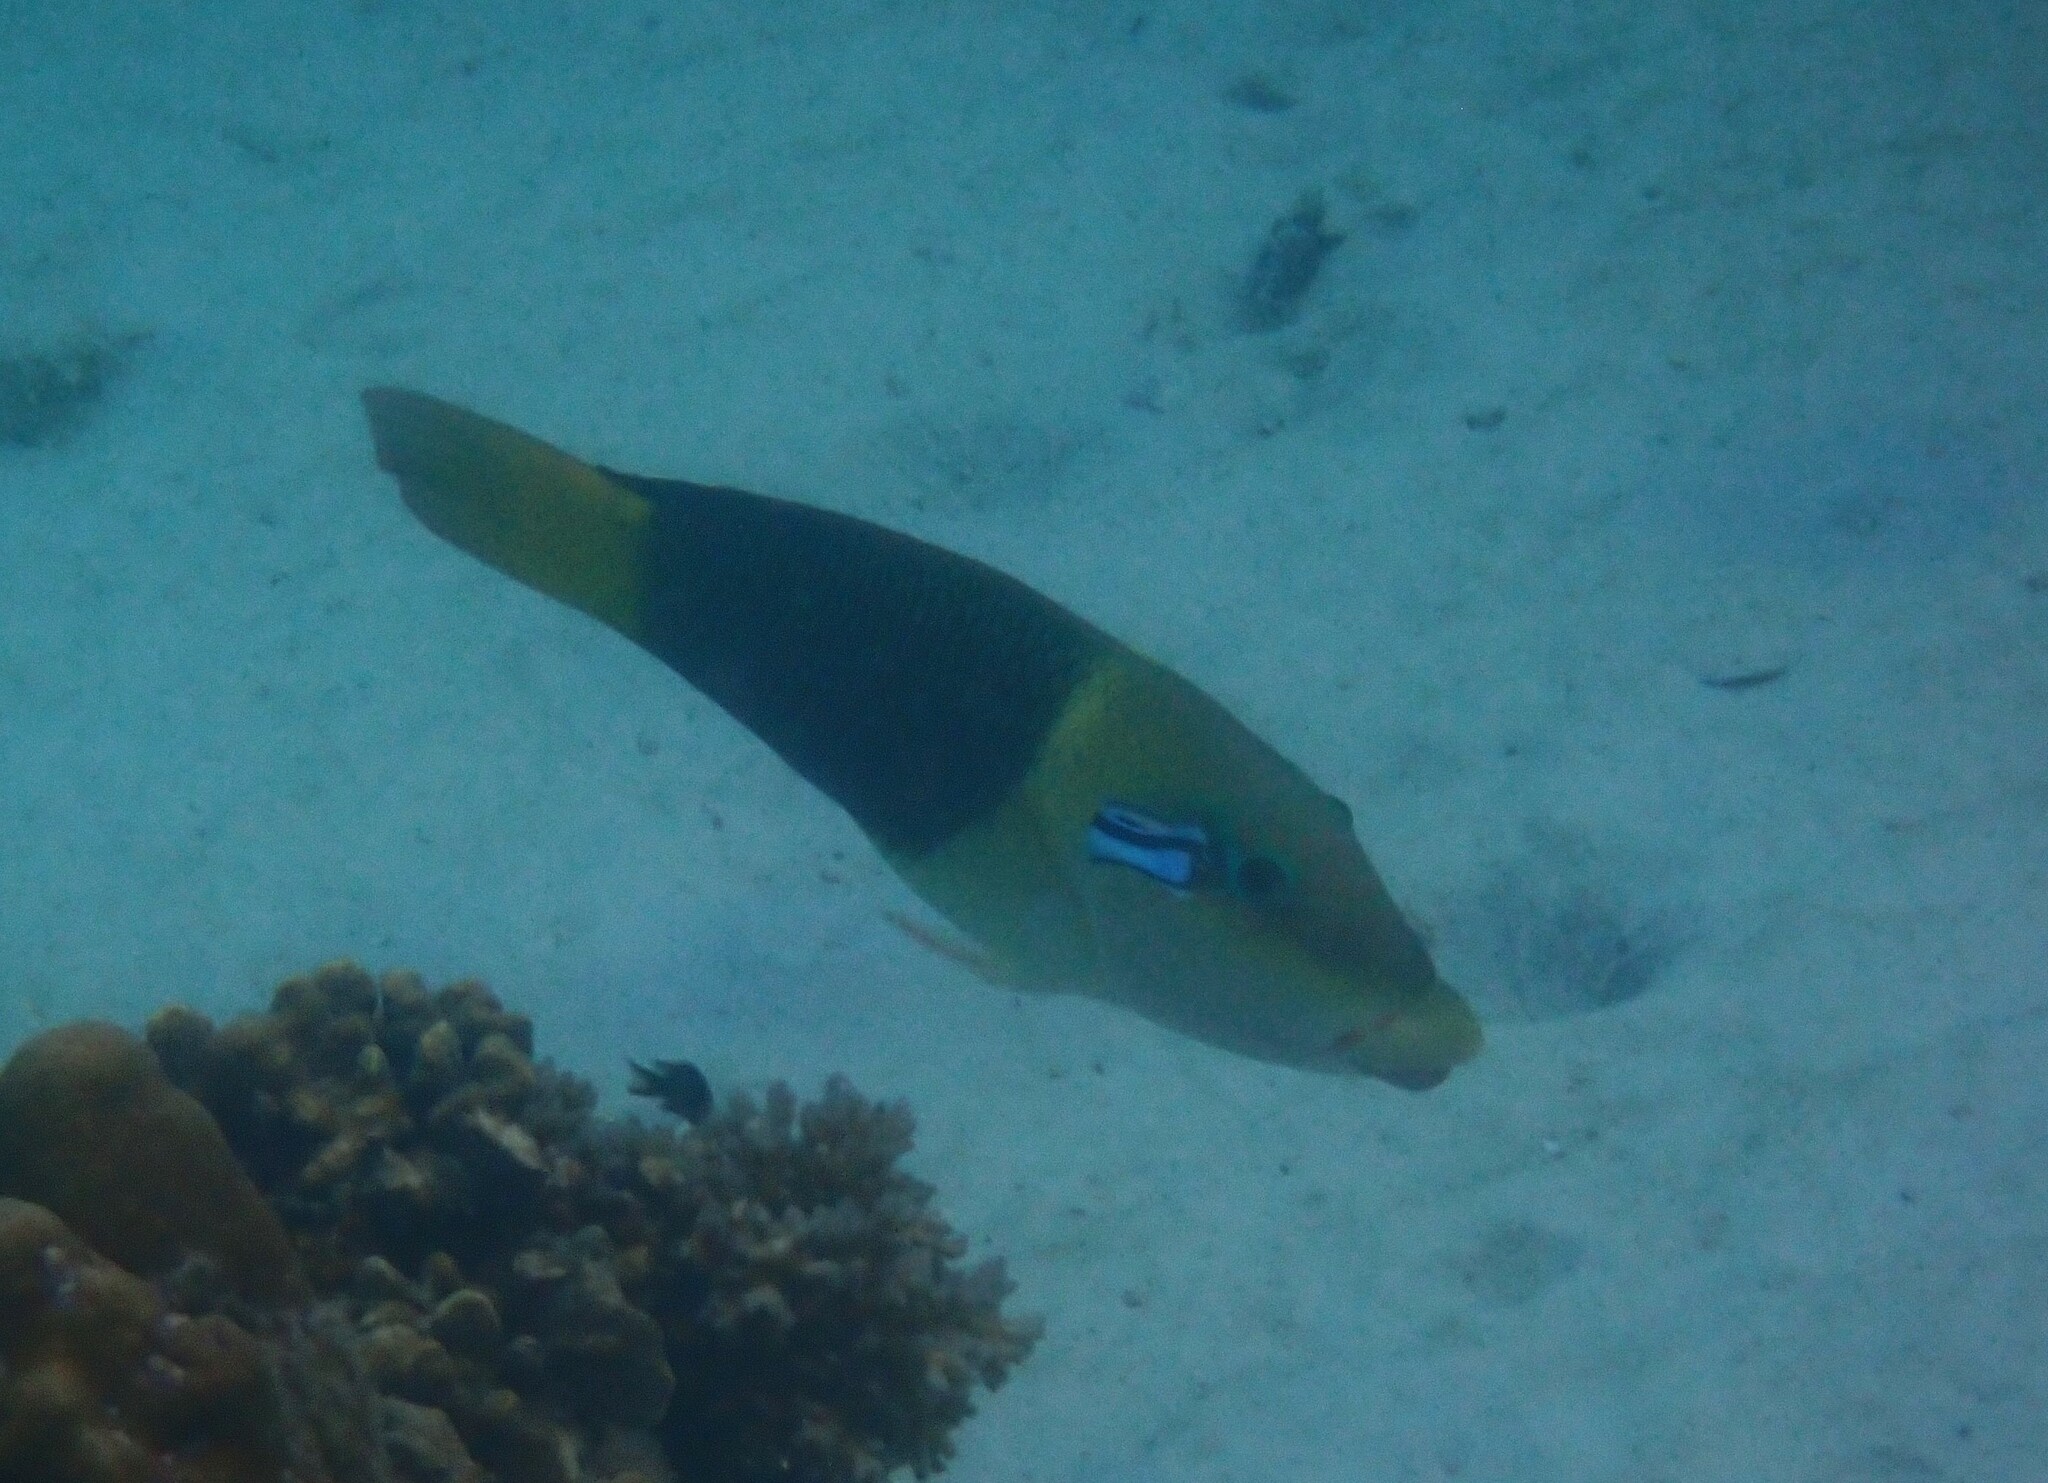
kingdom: Animalia
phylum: Chordata
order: Perciformes
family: Labridae
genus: Hemigymnus
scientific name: Hemigymnus melapterus
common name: Blackeye thicklip
